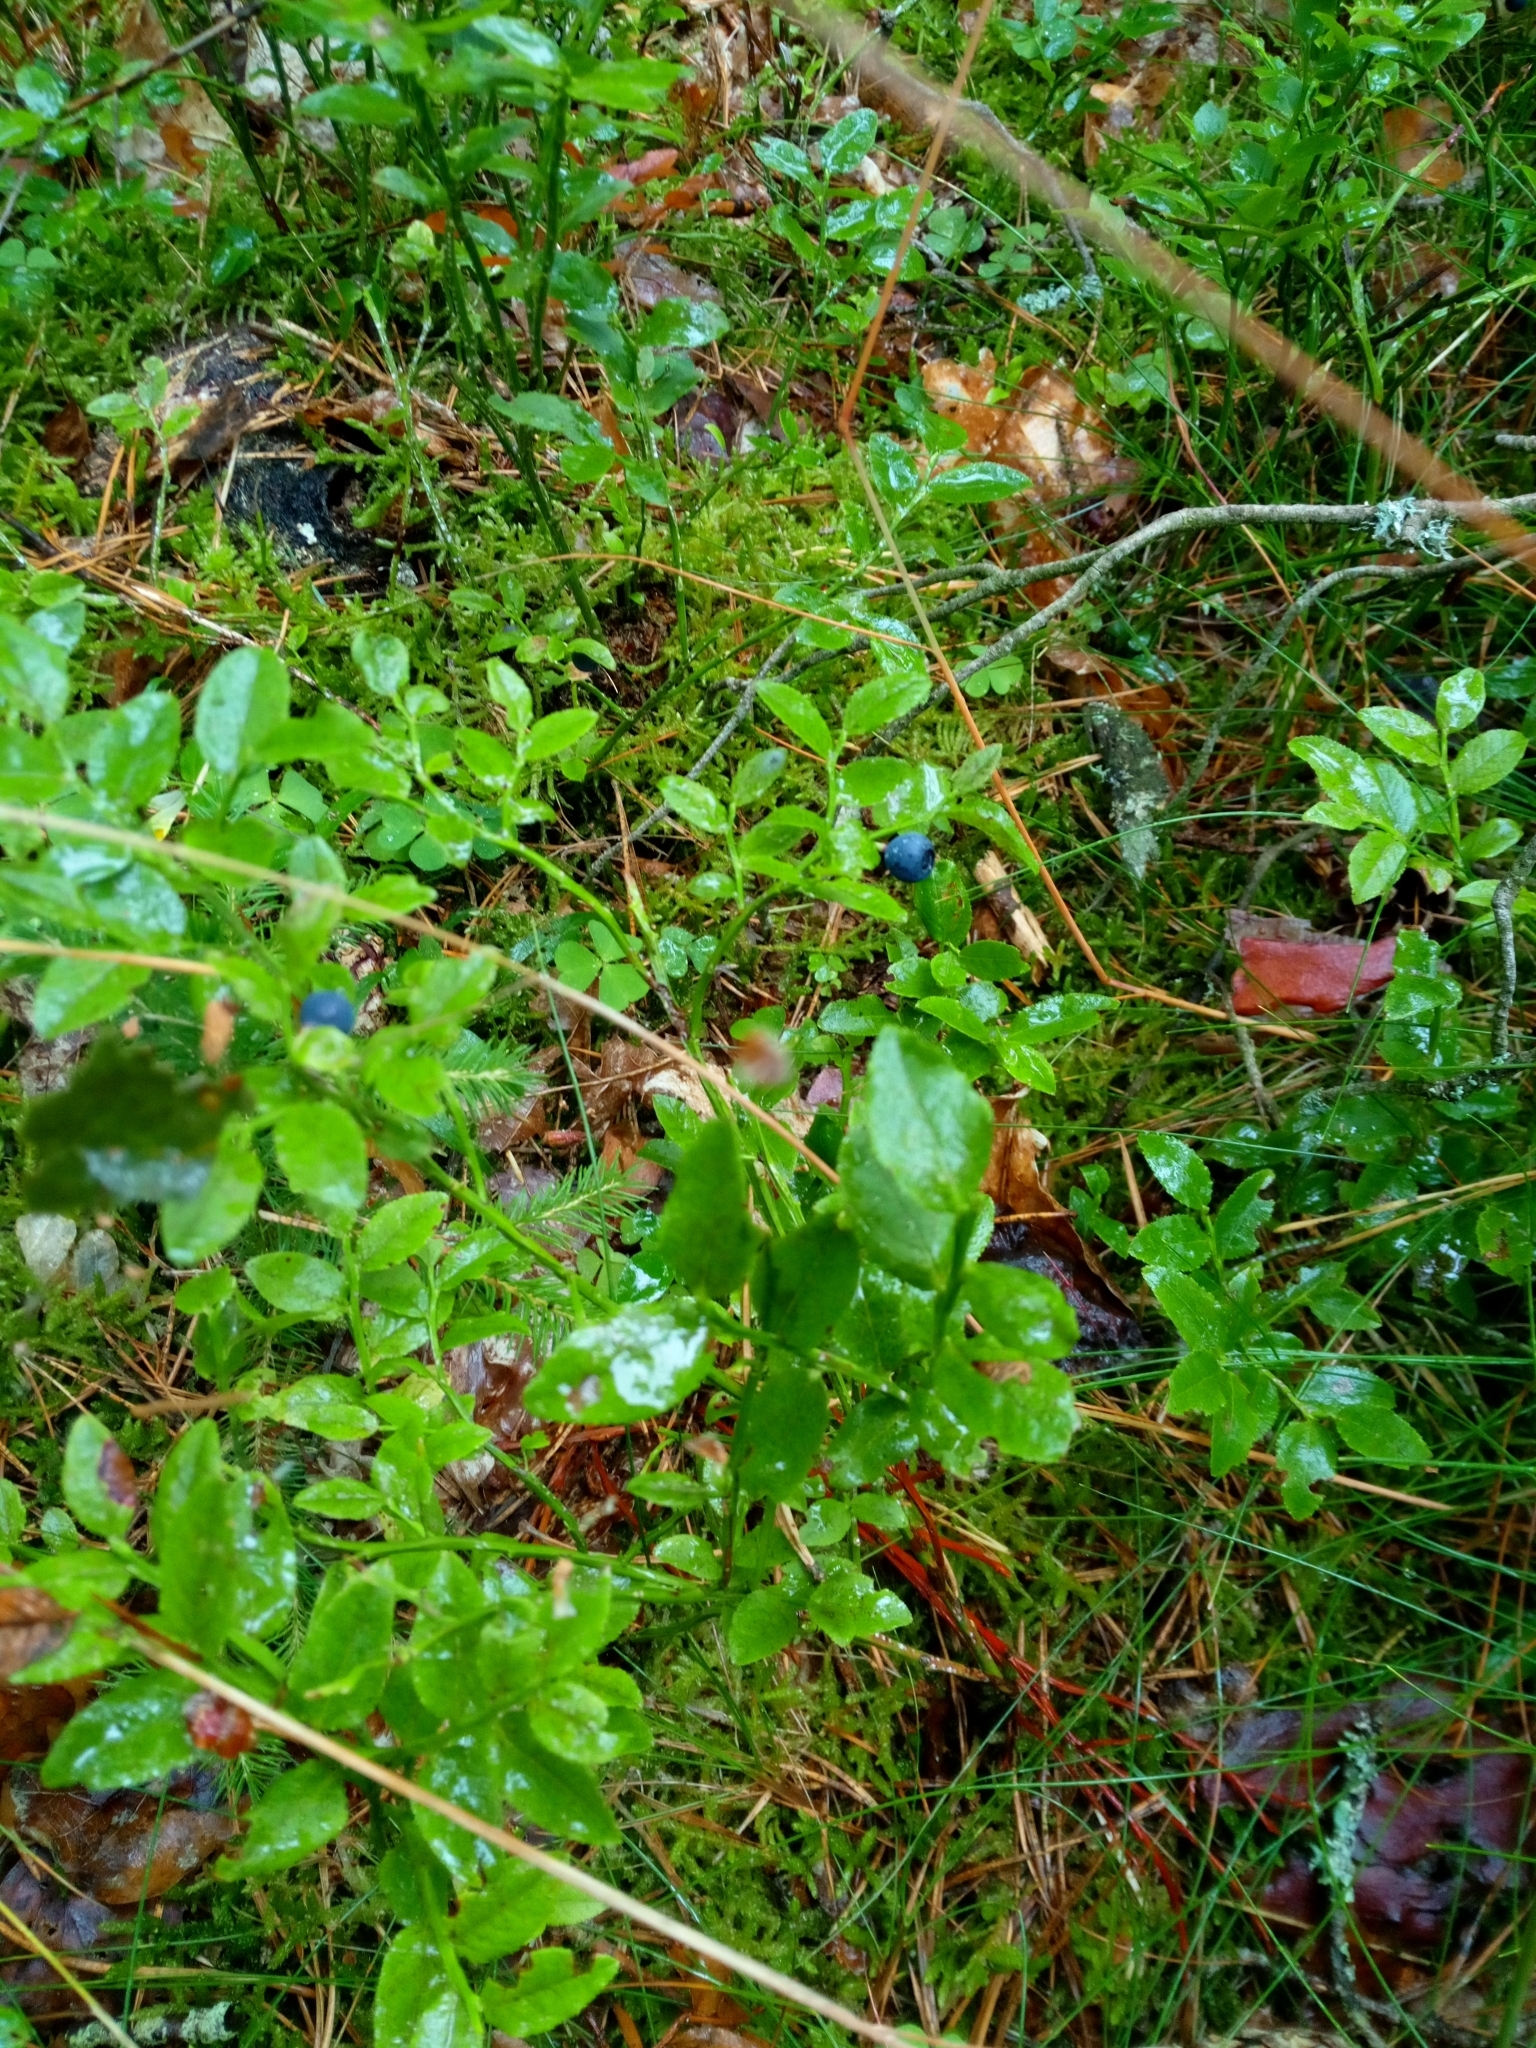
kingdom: Plantae
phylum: Tracheophyta
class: Magnoliopsida
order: Ericales
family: Ericaceae
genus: Vaccinium
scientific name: Vaccinium myrtillus
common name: Bilberry
